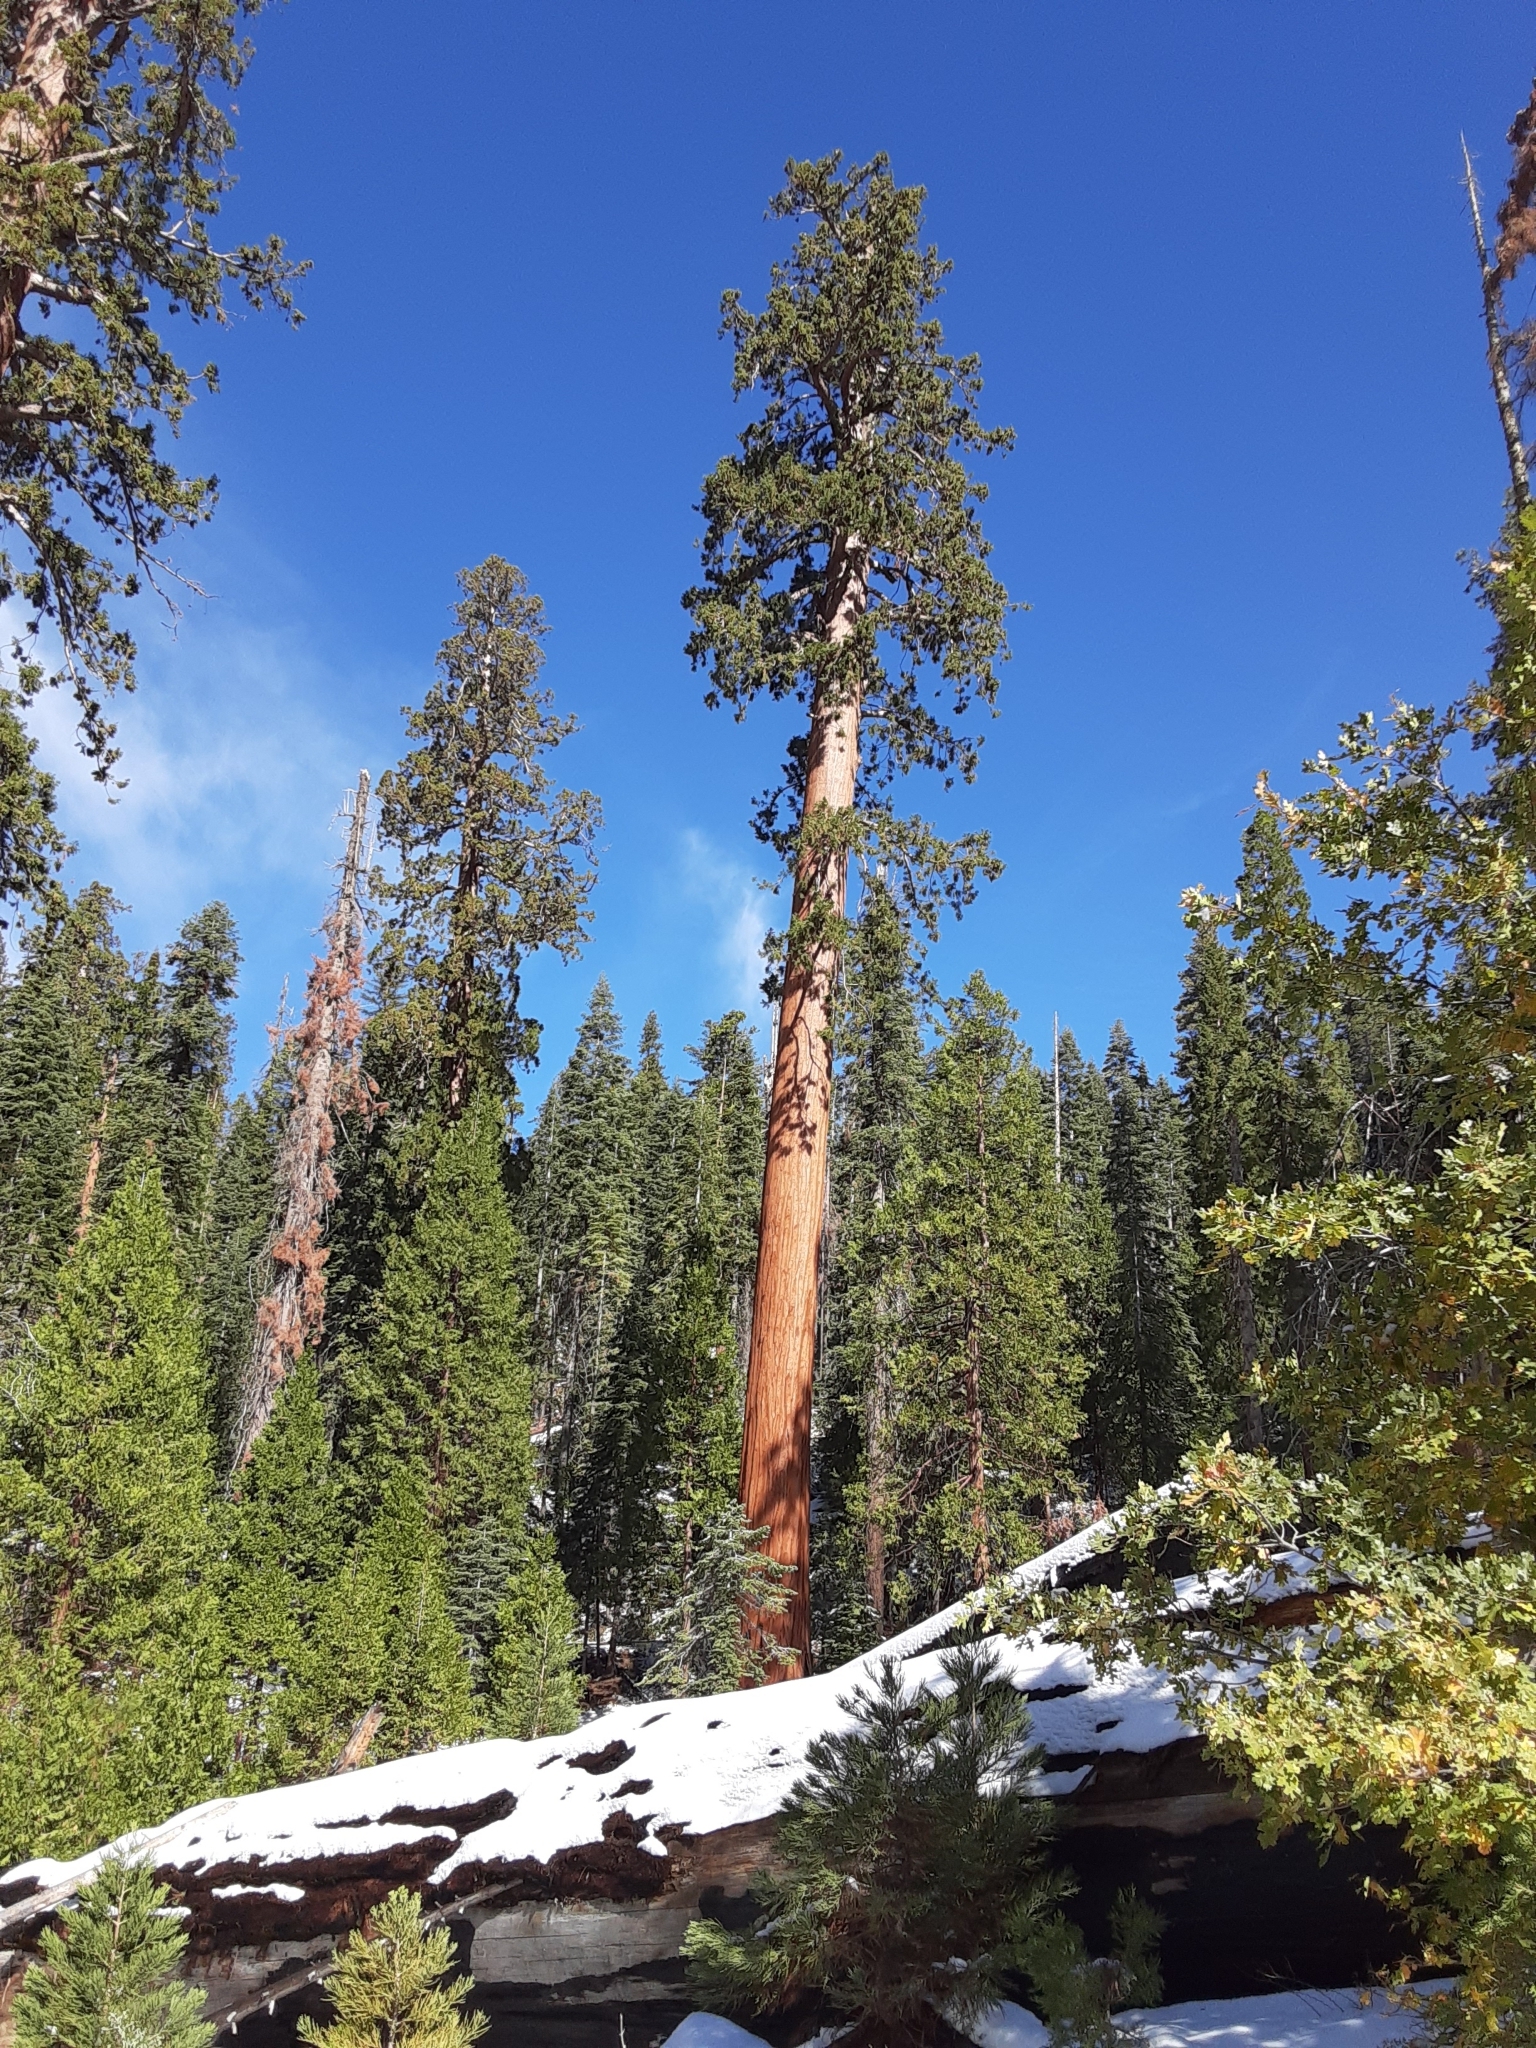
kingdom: Plantae
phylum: Tracheophyta
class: Pinopsida
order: Pinales
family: Cupressaceae
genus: Sequoiadendron
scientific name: Sequoiadendron giganteum
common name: Wellingtonia
